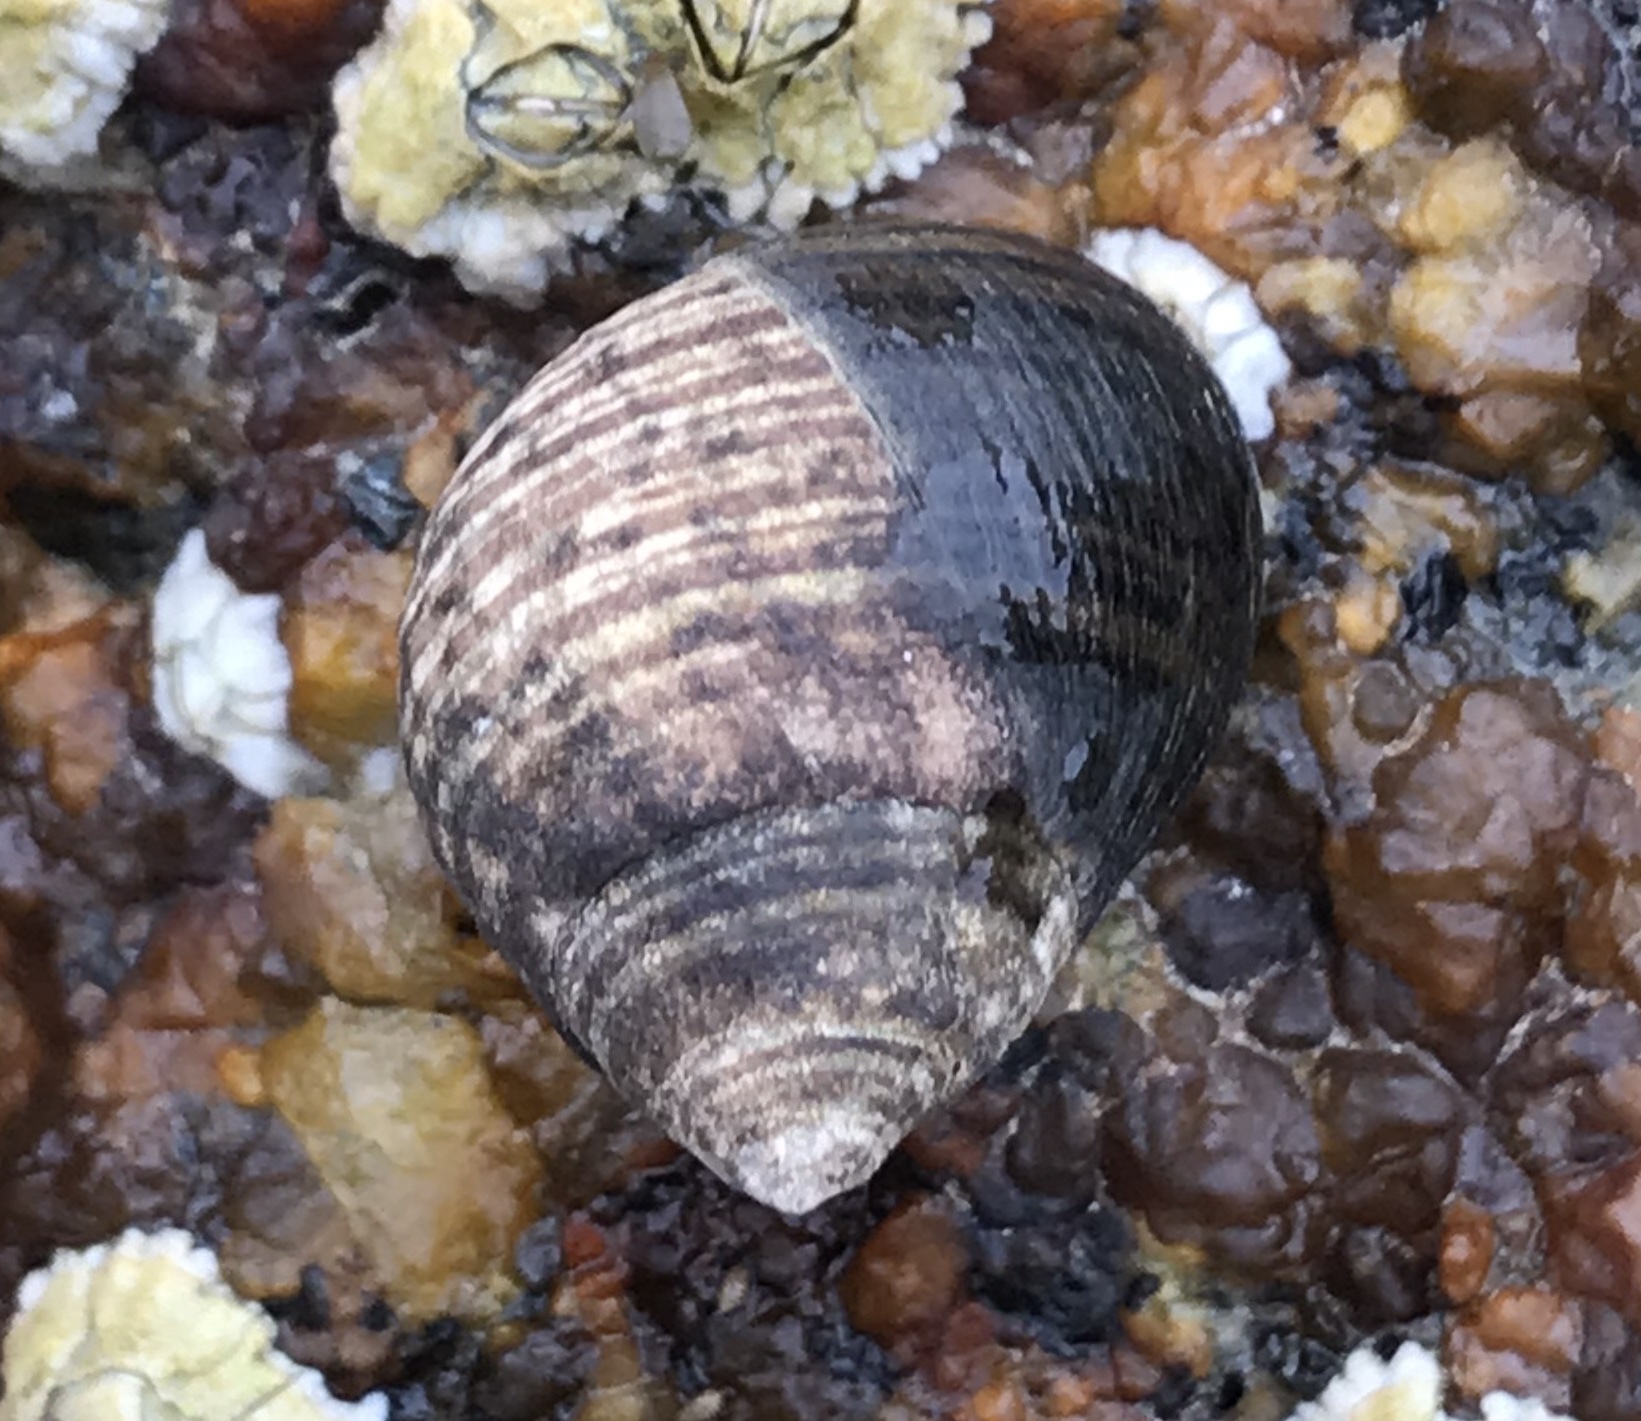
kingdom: Animalia
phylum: Mollusca
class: Gastropoda
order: Littorinimorpha
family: Littorinidae
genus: Littorina
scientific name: Littorina littorea
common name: Common periwinkle
